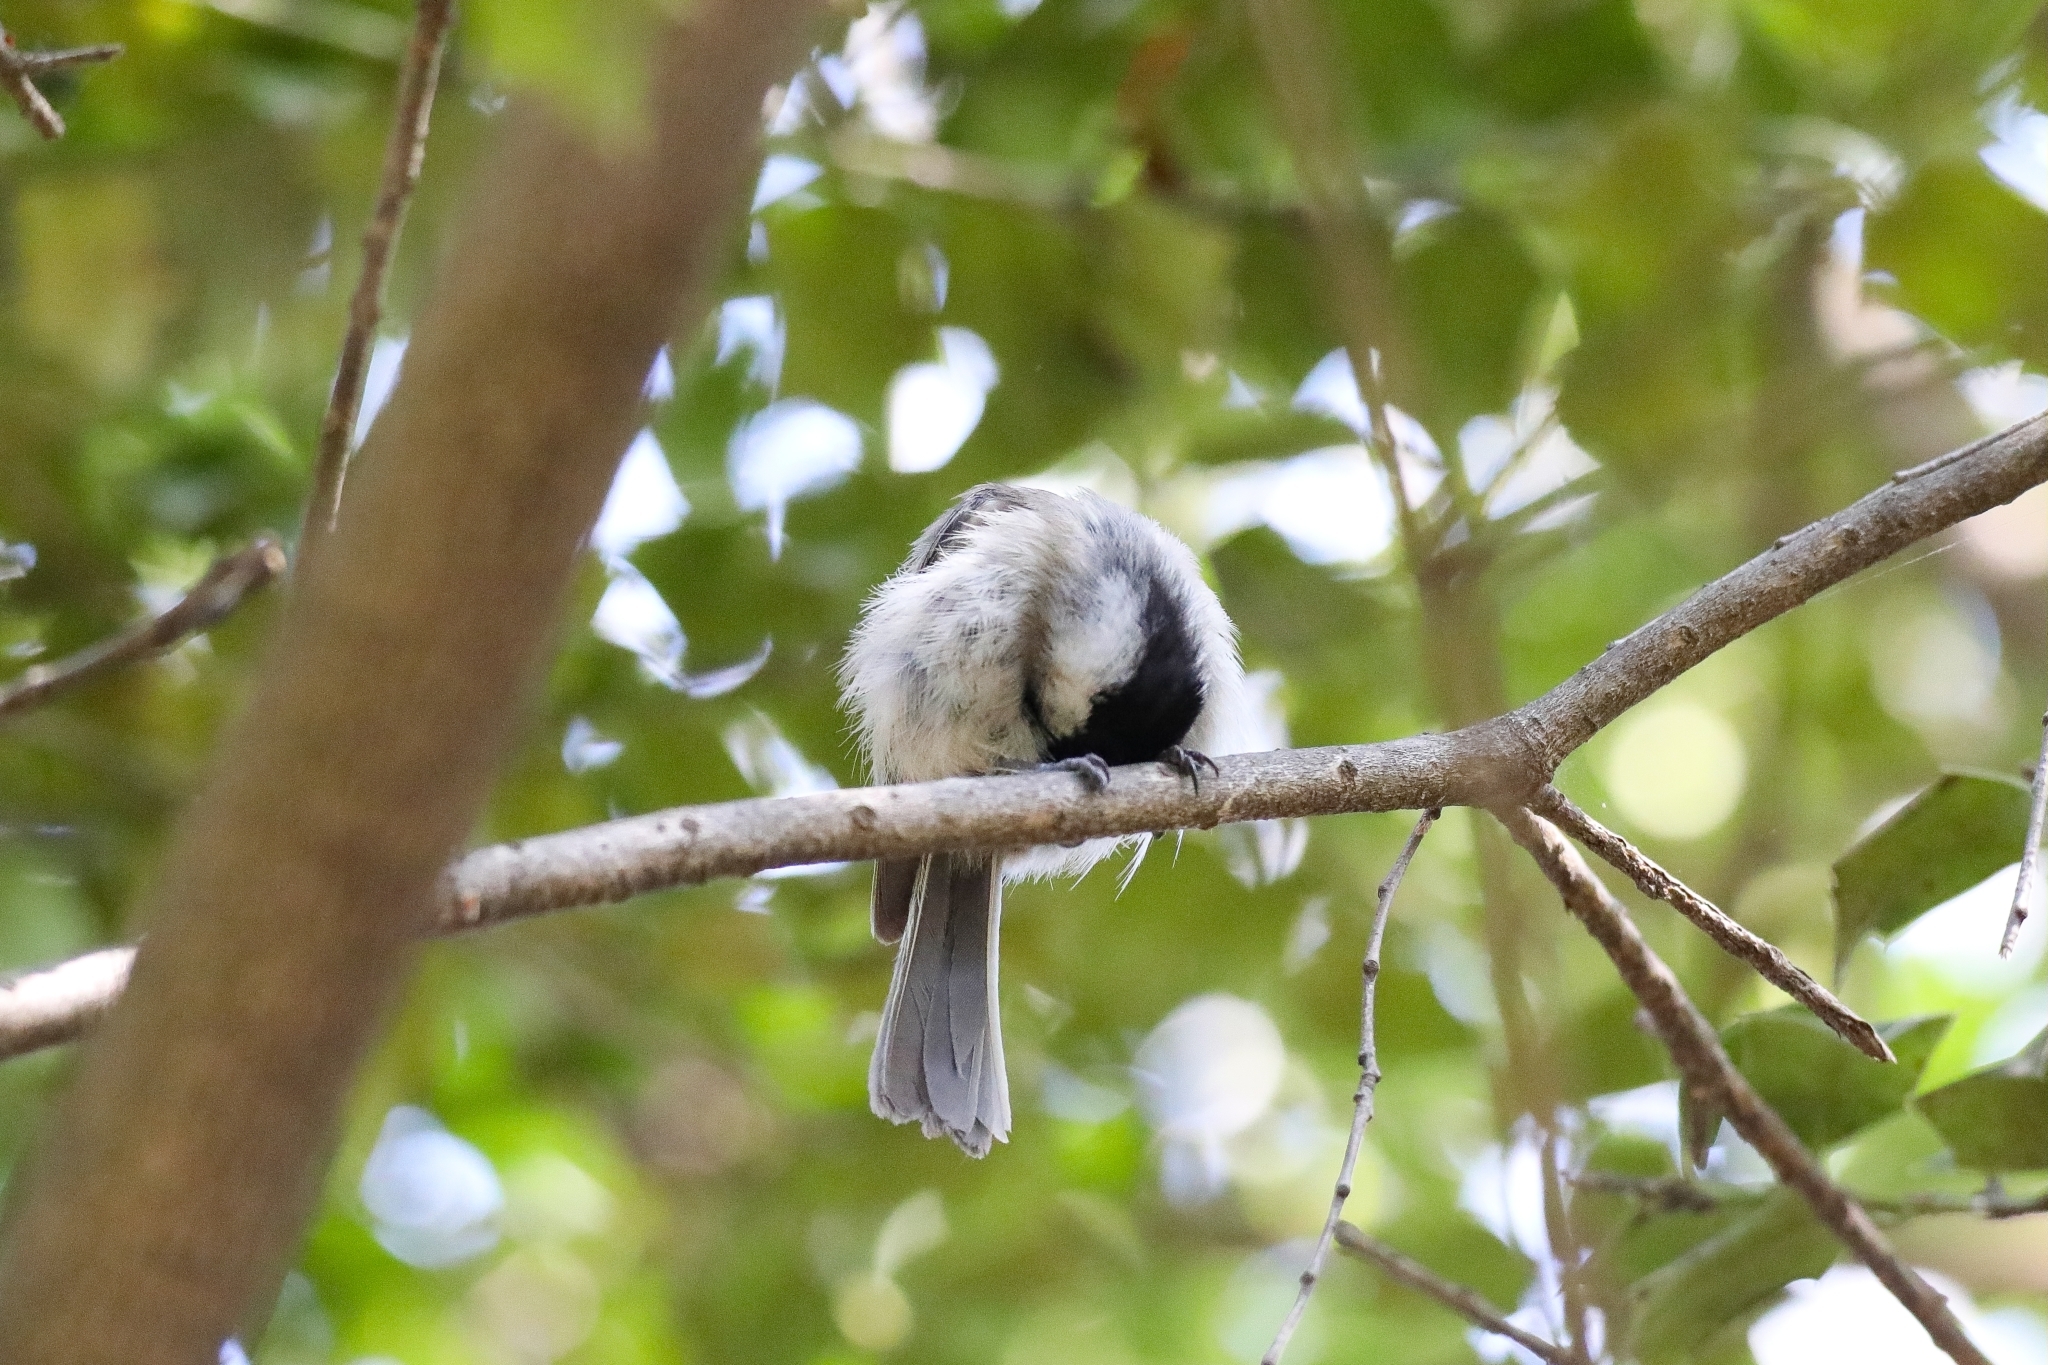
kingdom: Animalia
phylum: Chordata
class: Aves
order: Passeriformes
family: Paridae
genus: Poecile
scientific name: Poecile palustris
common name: Marsh tit
